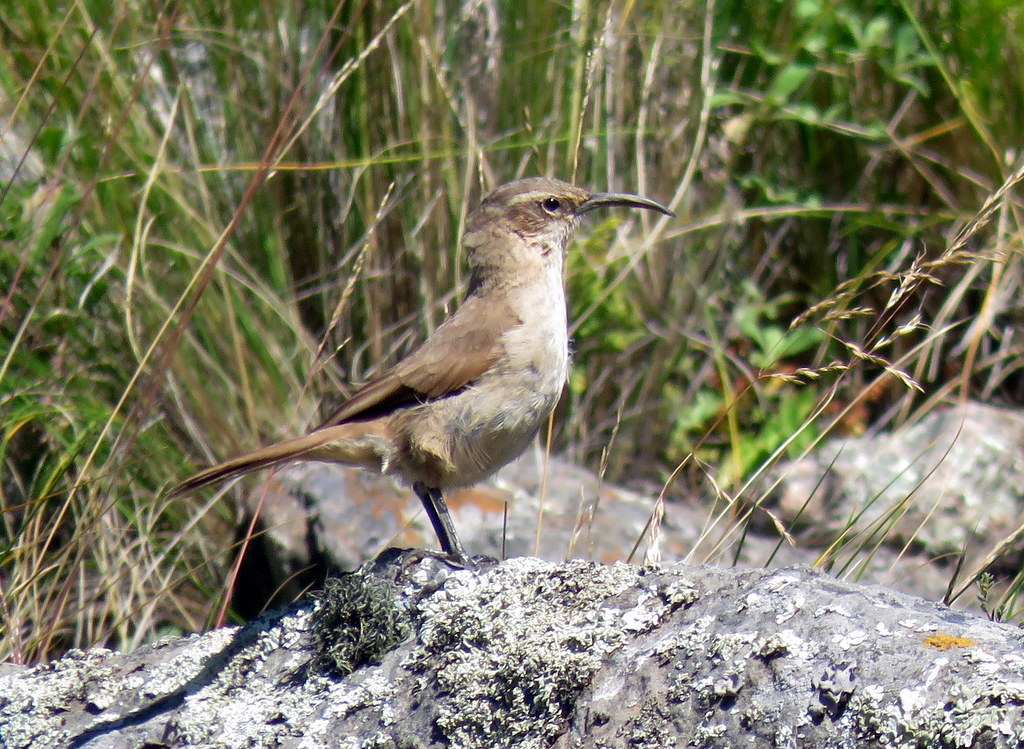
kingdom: Animalia
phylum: Chordata
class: Aves
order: Passeriformes
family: Furnariidae
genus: Upucerthia
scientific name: Upucerthia validirostris
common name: Buff-breasted earthcreeper
